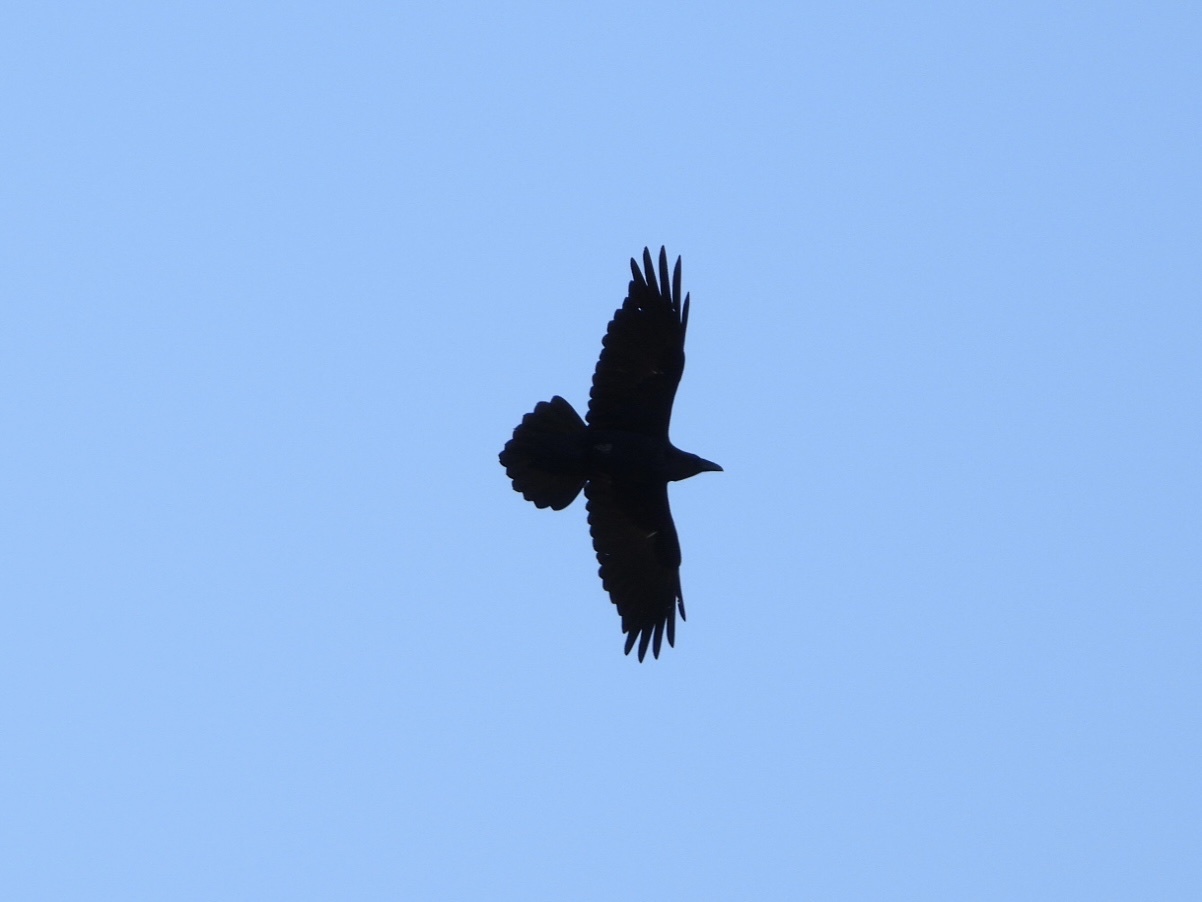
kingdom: Animalia
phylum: Chordata
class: Aves
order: Passeriformes
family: Corvidae
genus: Corvus
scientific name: Corvus corax
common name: Common raven
